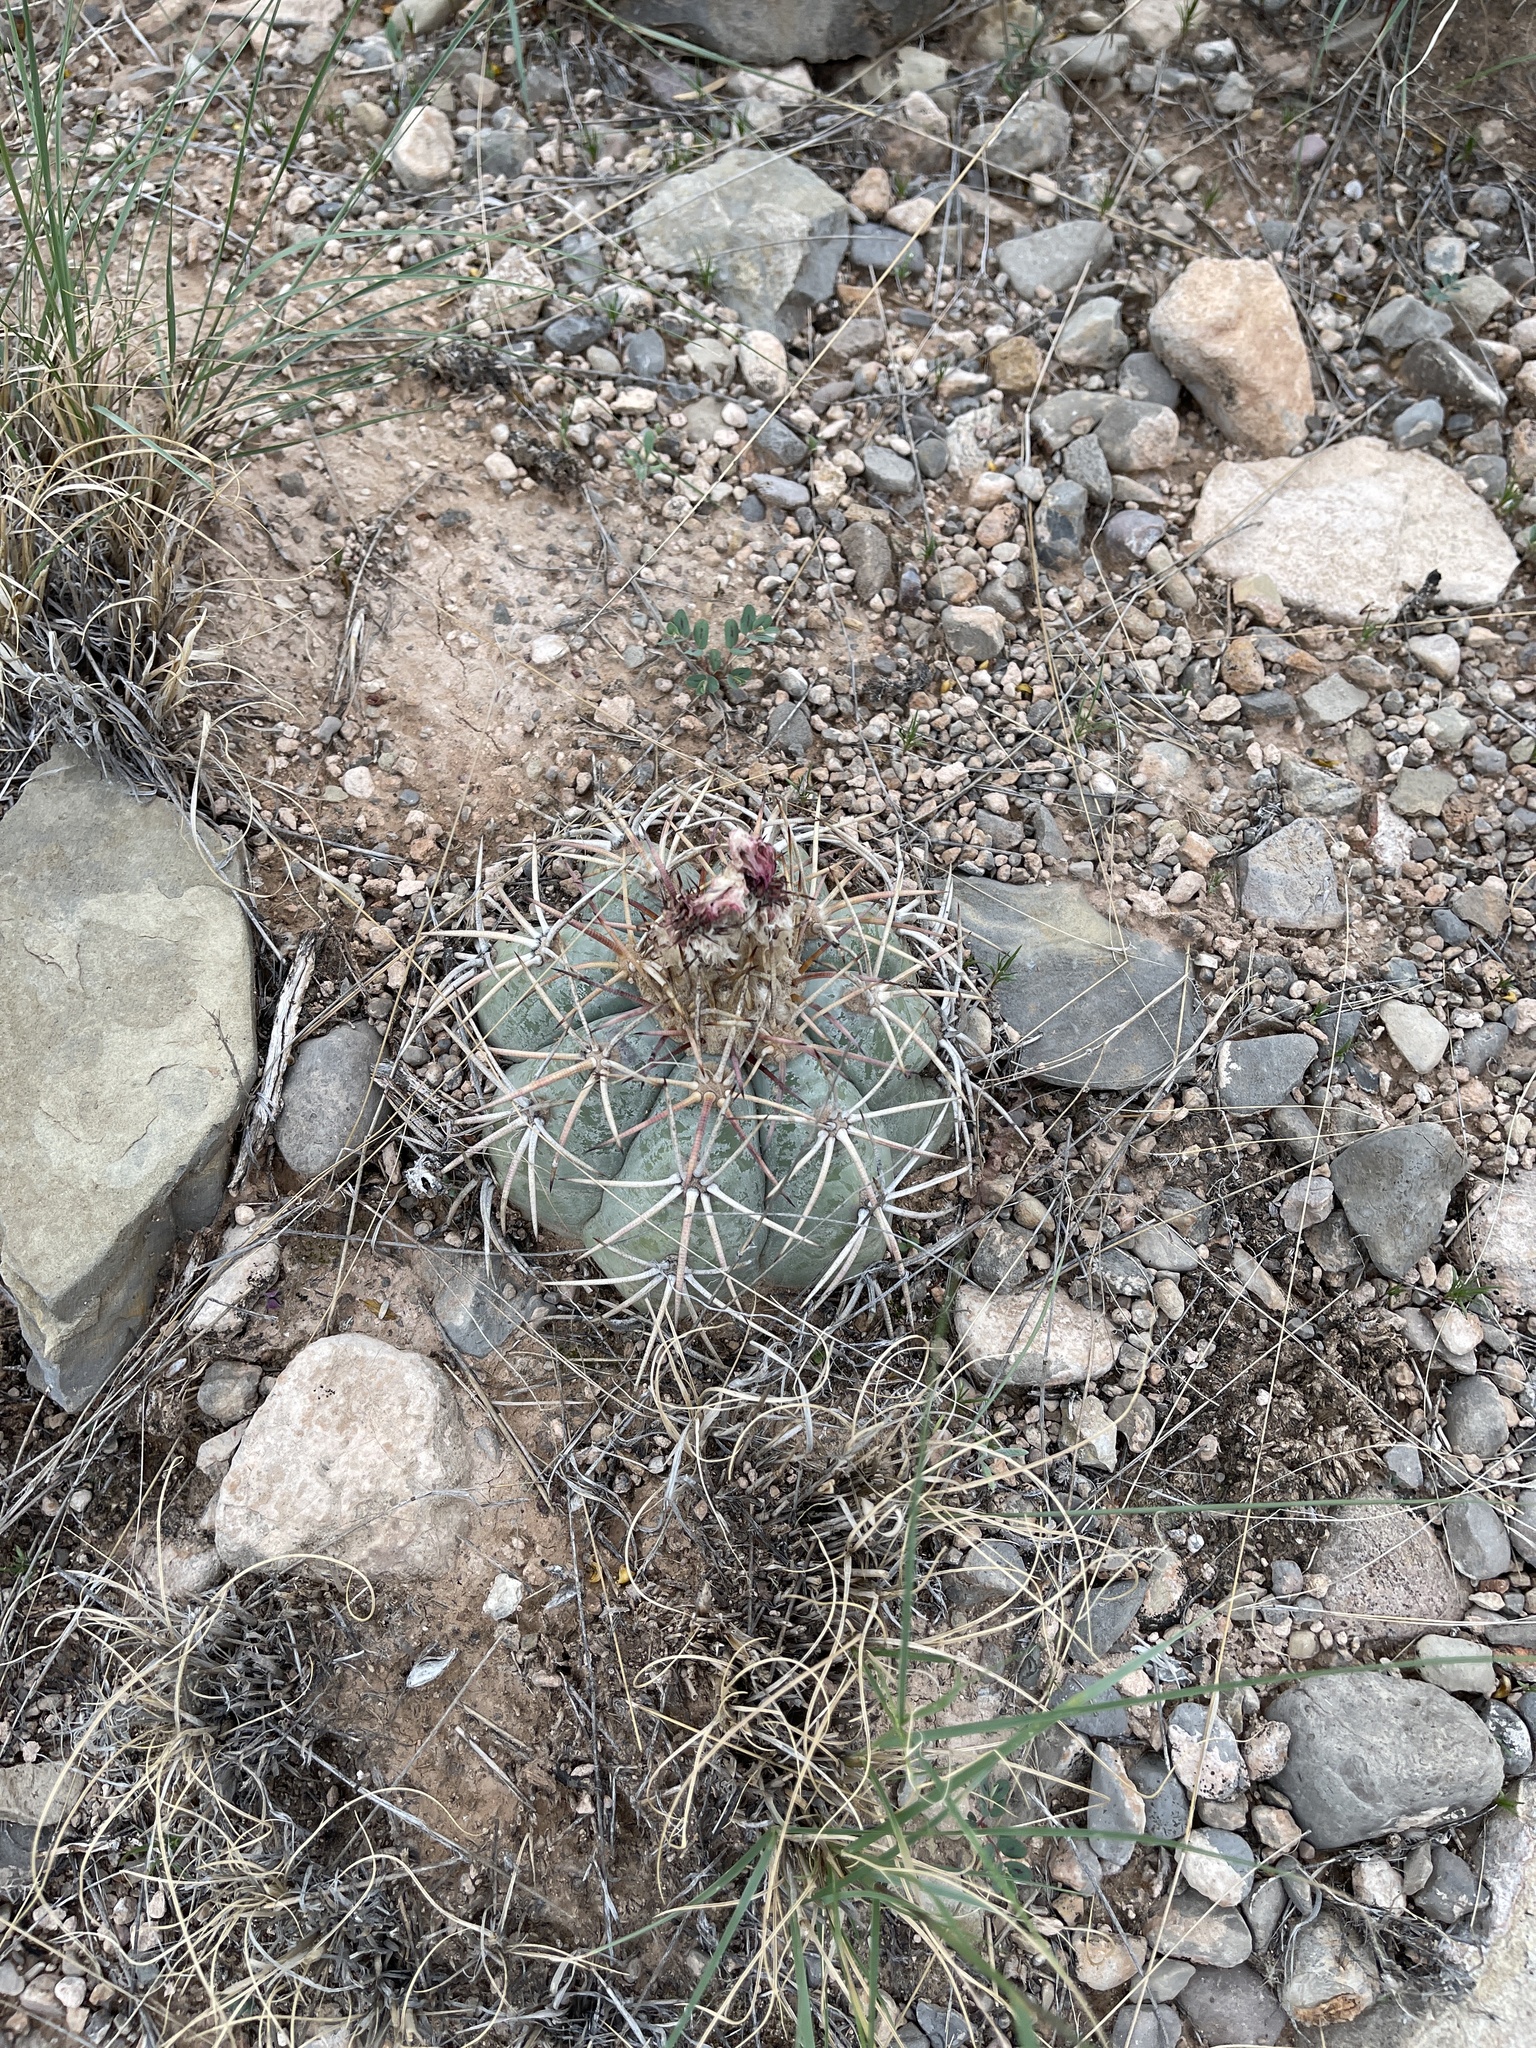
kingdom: Plantae
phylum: Tracheophyta
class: Magnoliopsida
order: Caryophyllales
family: Cactaceae
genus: Echinocactus
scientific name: Echinocactus horizonthalonius
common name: Devilshead
